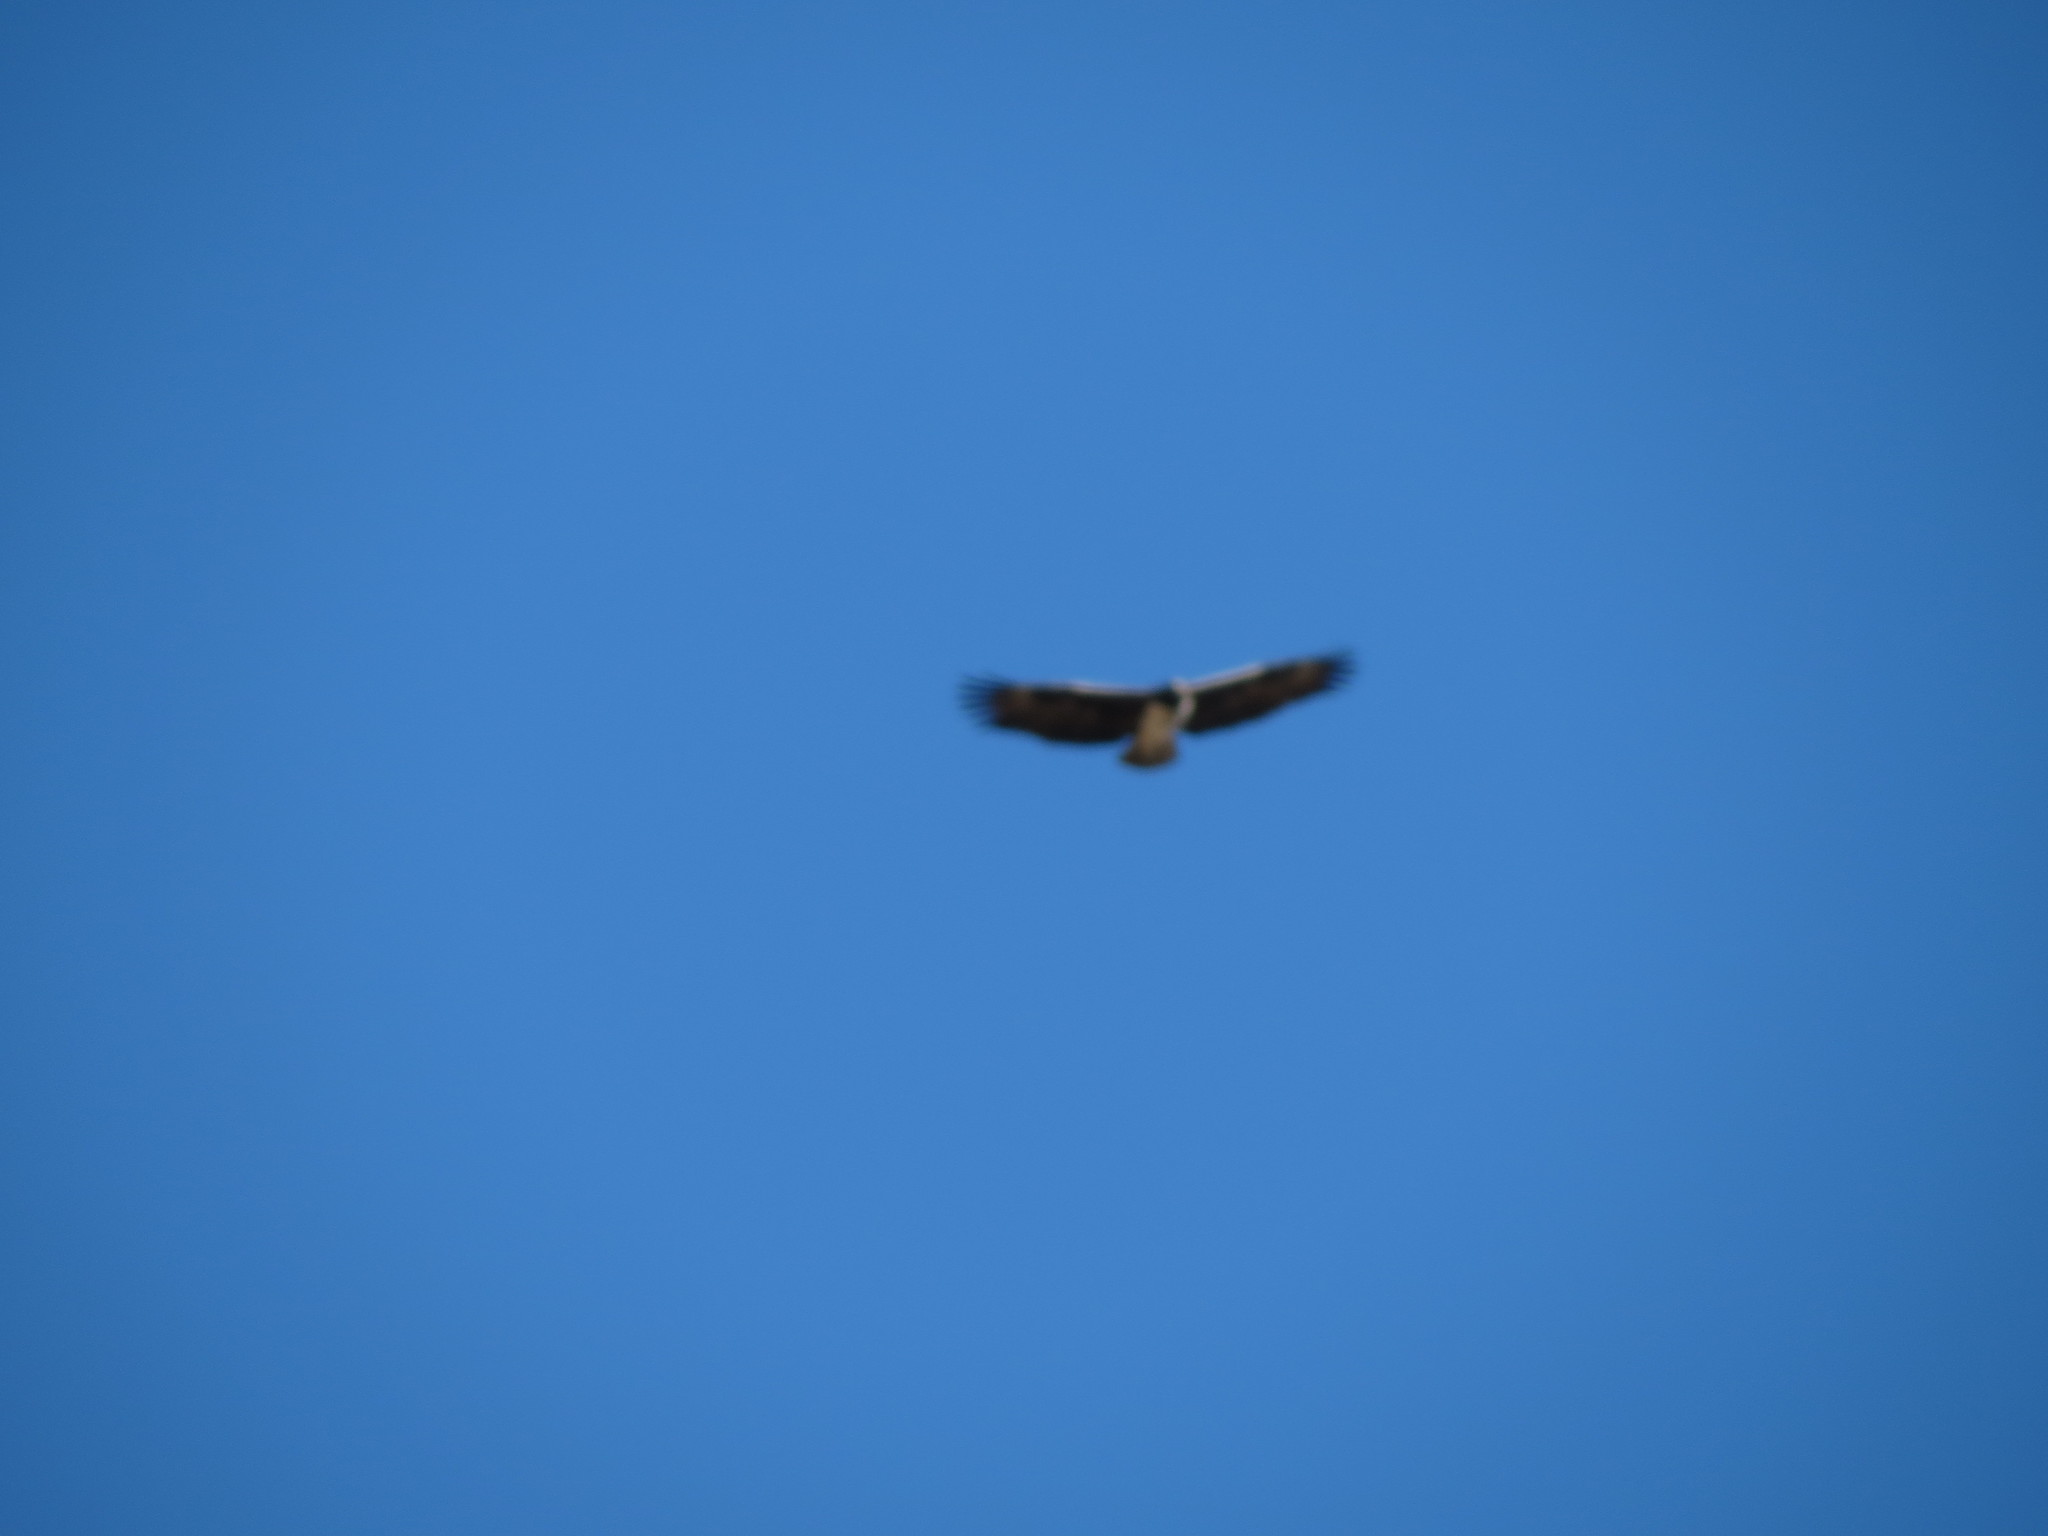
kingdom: Animalia
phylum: Chordata
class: Aves
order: Accipitriformes
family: Accipitridae
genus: Polemaetus
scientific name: Polemaetus bellicosus
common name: Martial eagle
